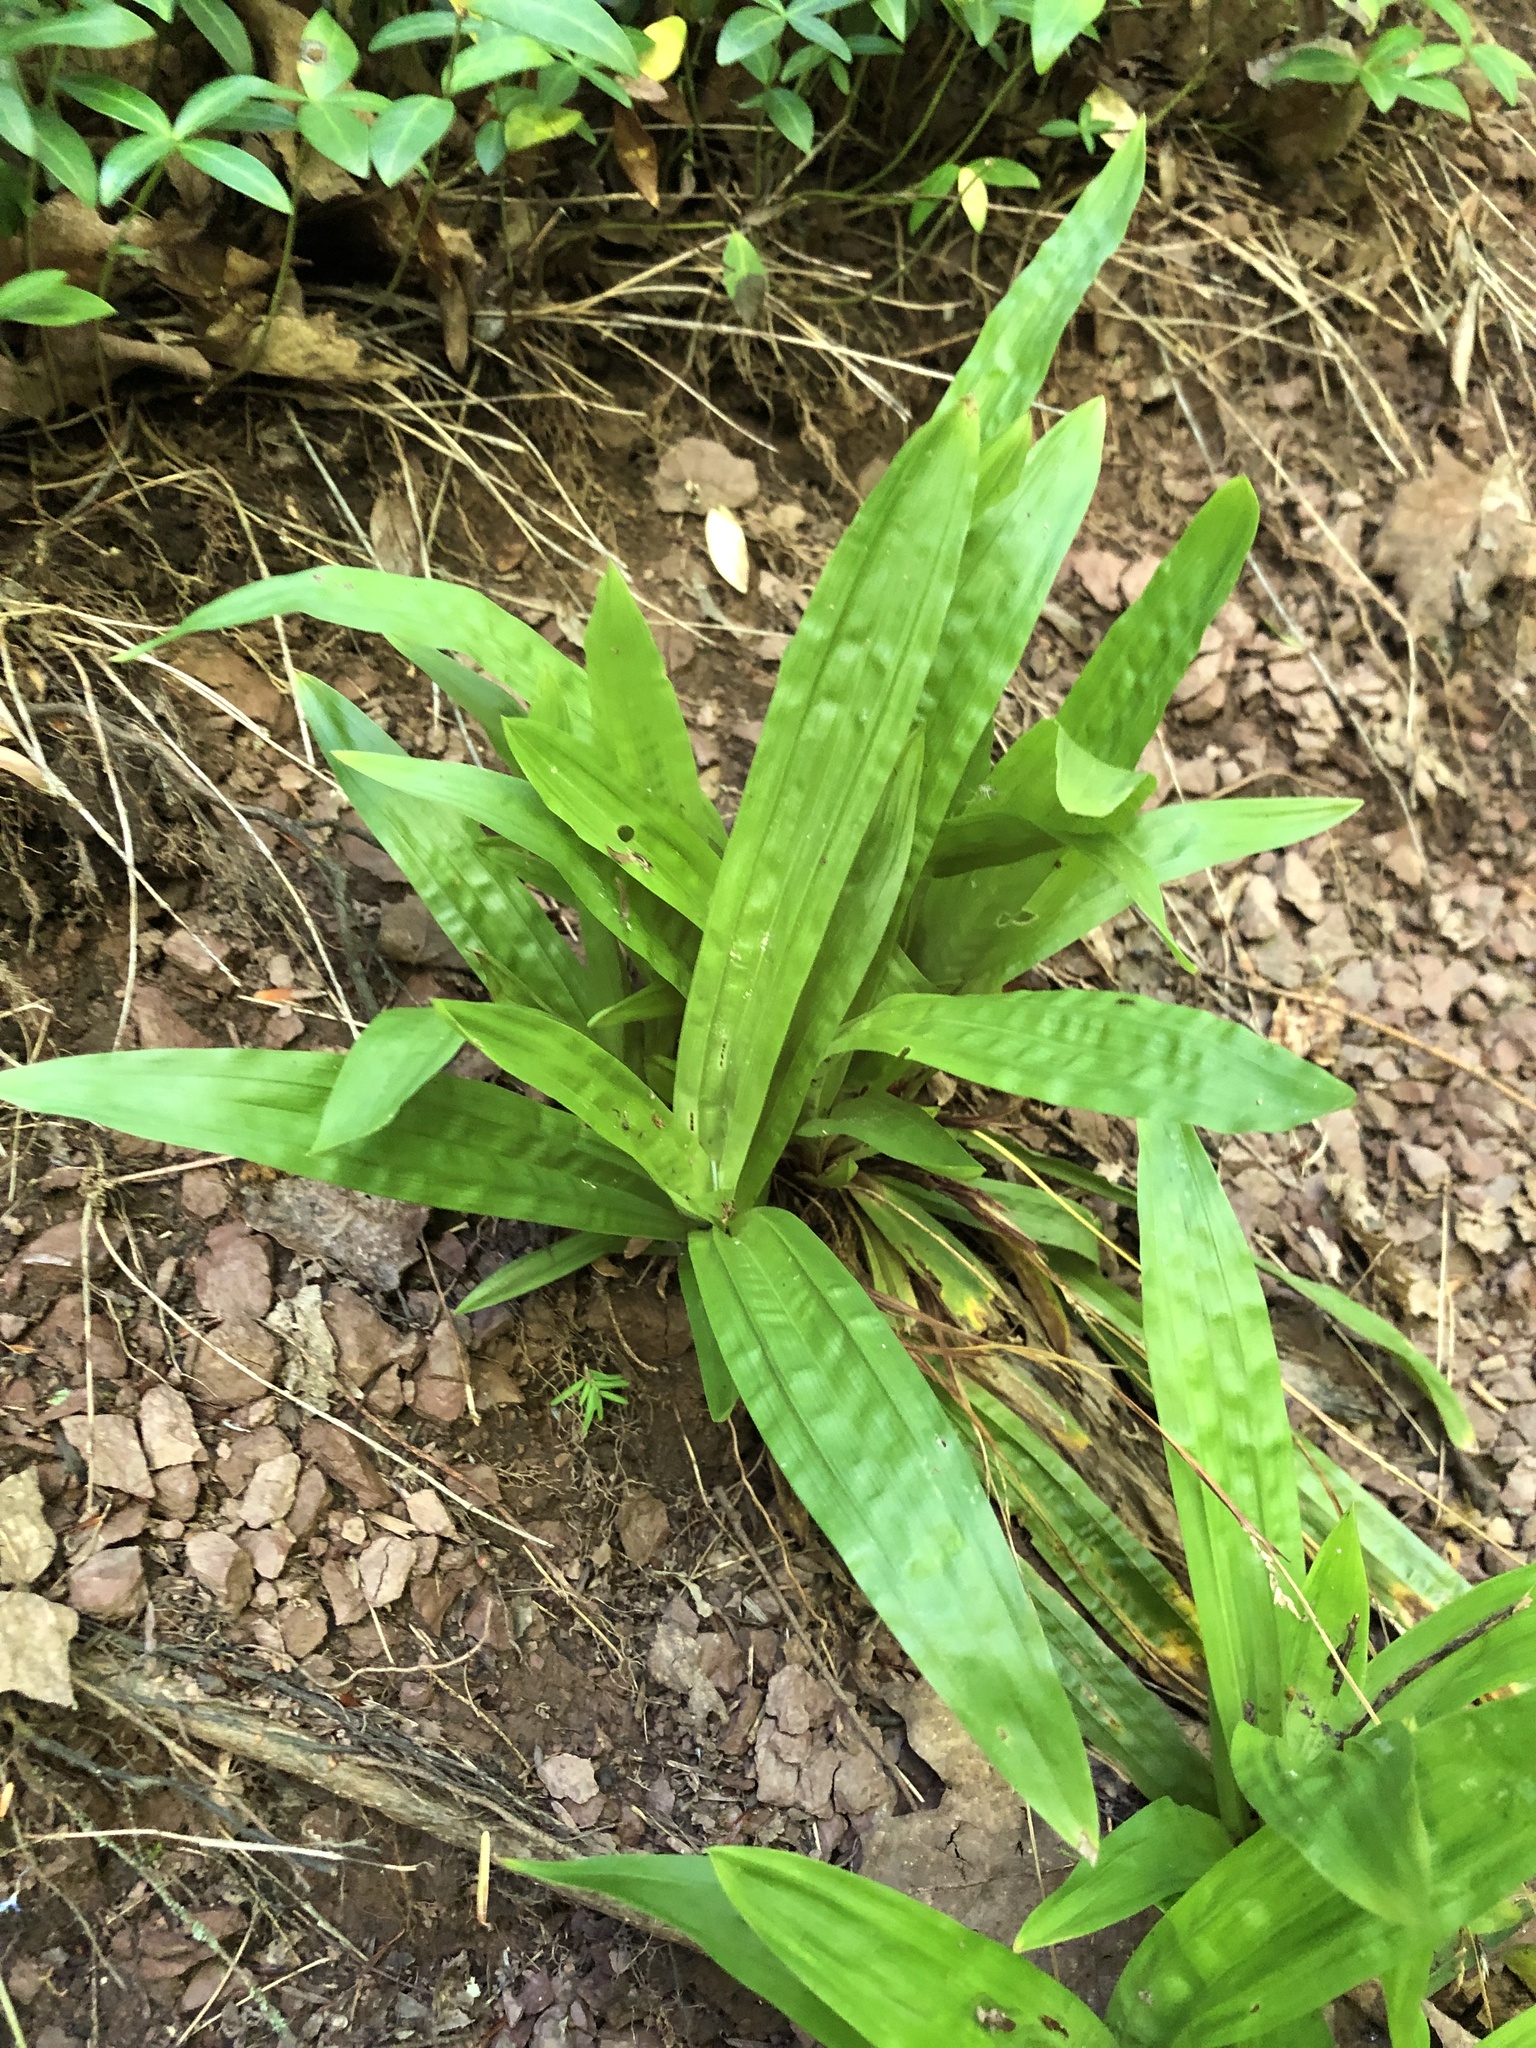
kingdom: Plantae
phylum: Tracheophyta
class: Liliopsida
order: Poales
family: Cyperaceae
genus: Carex
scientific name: Carex plantaginea
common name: Plantain-leaved sedge
